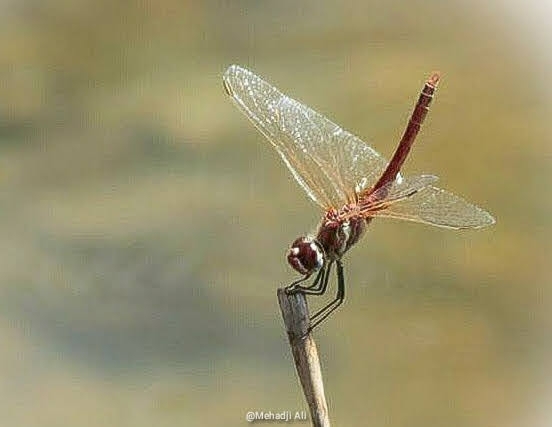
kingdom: Animalia
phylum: Arthropoda
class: Insecta
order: Odonata
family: Libellulidae
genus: Sympetrum
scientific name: Sympetrum fonscolombii
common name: Red-veined darter
